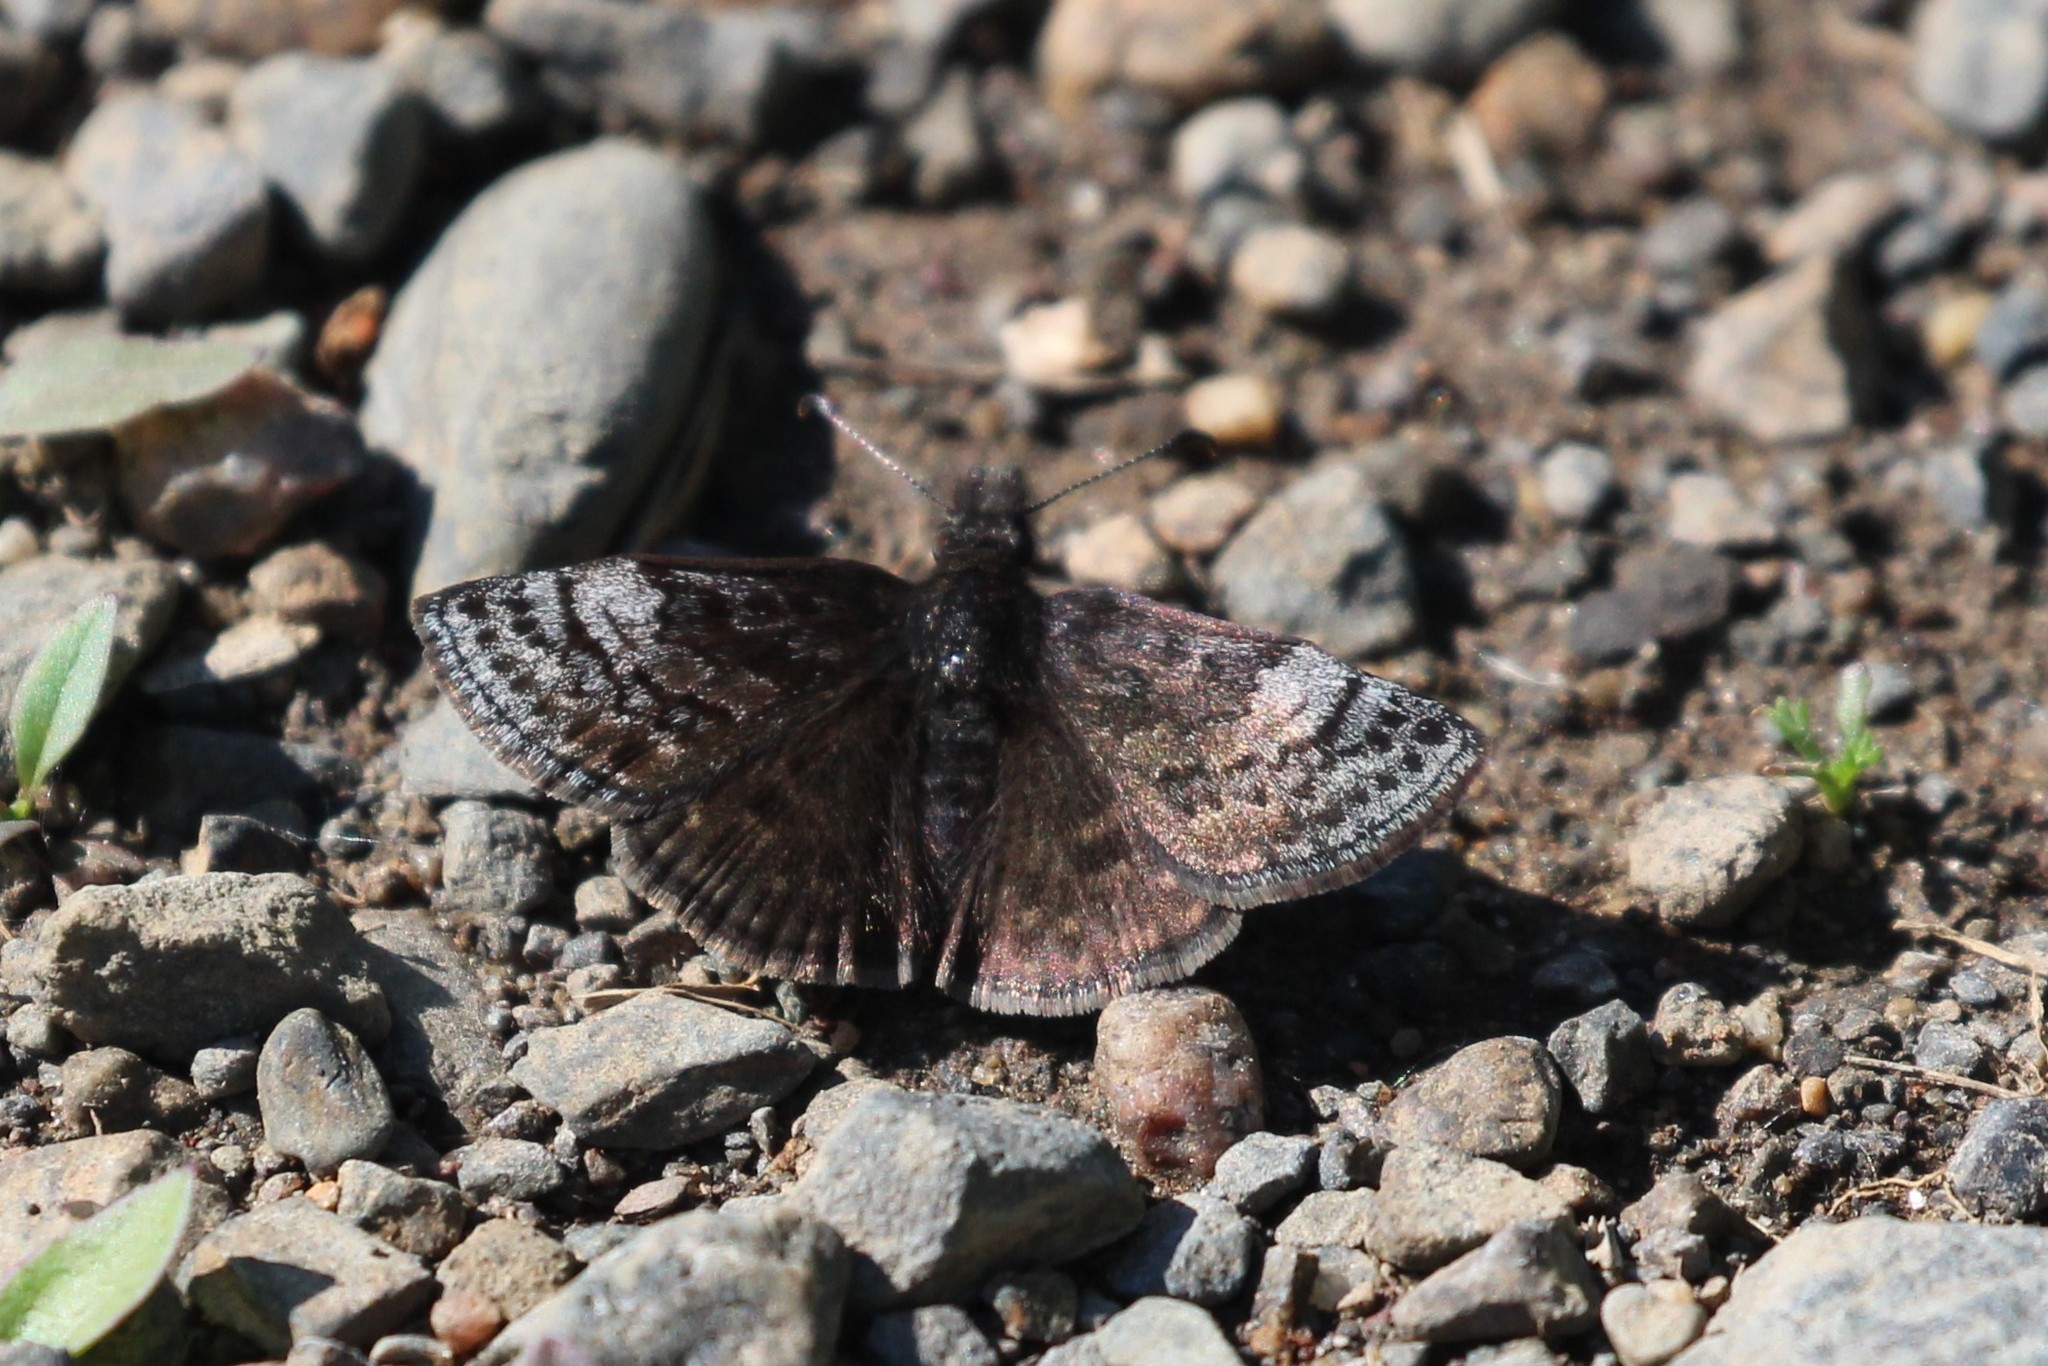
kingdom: Animalia
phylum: Arthropoda
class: Insecta
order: Lepidoptera
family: Hesperiidae
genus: Erynnis
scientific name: Erynnis icelus
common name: Dreamy duskywing
